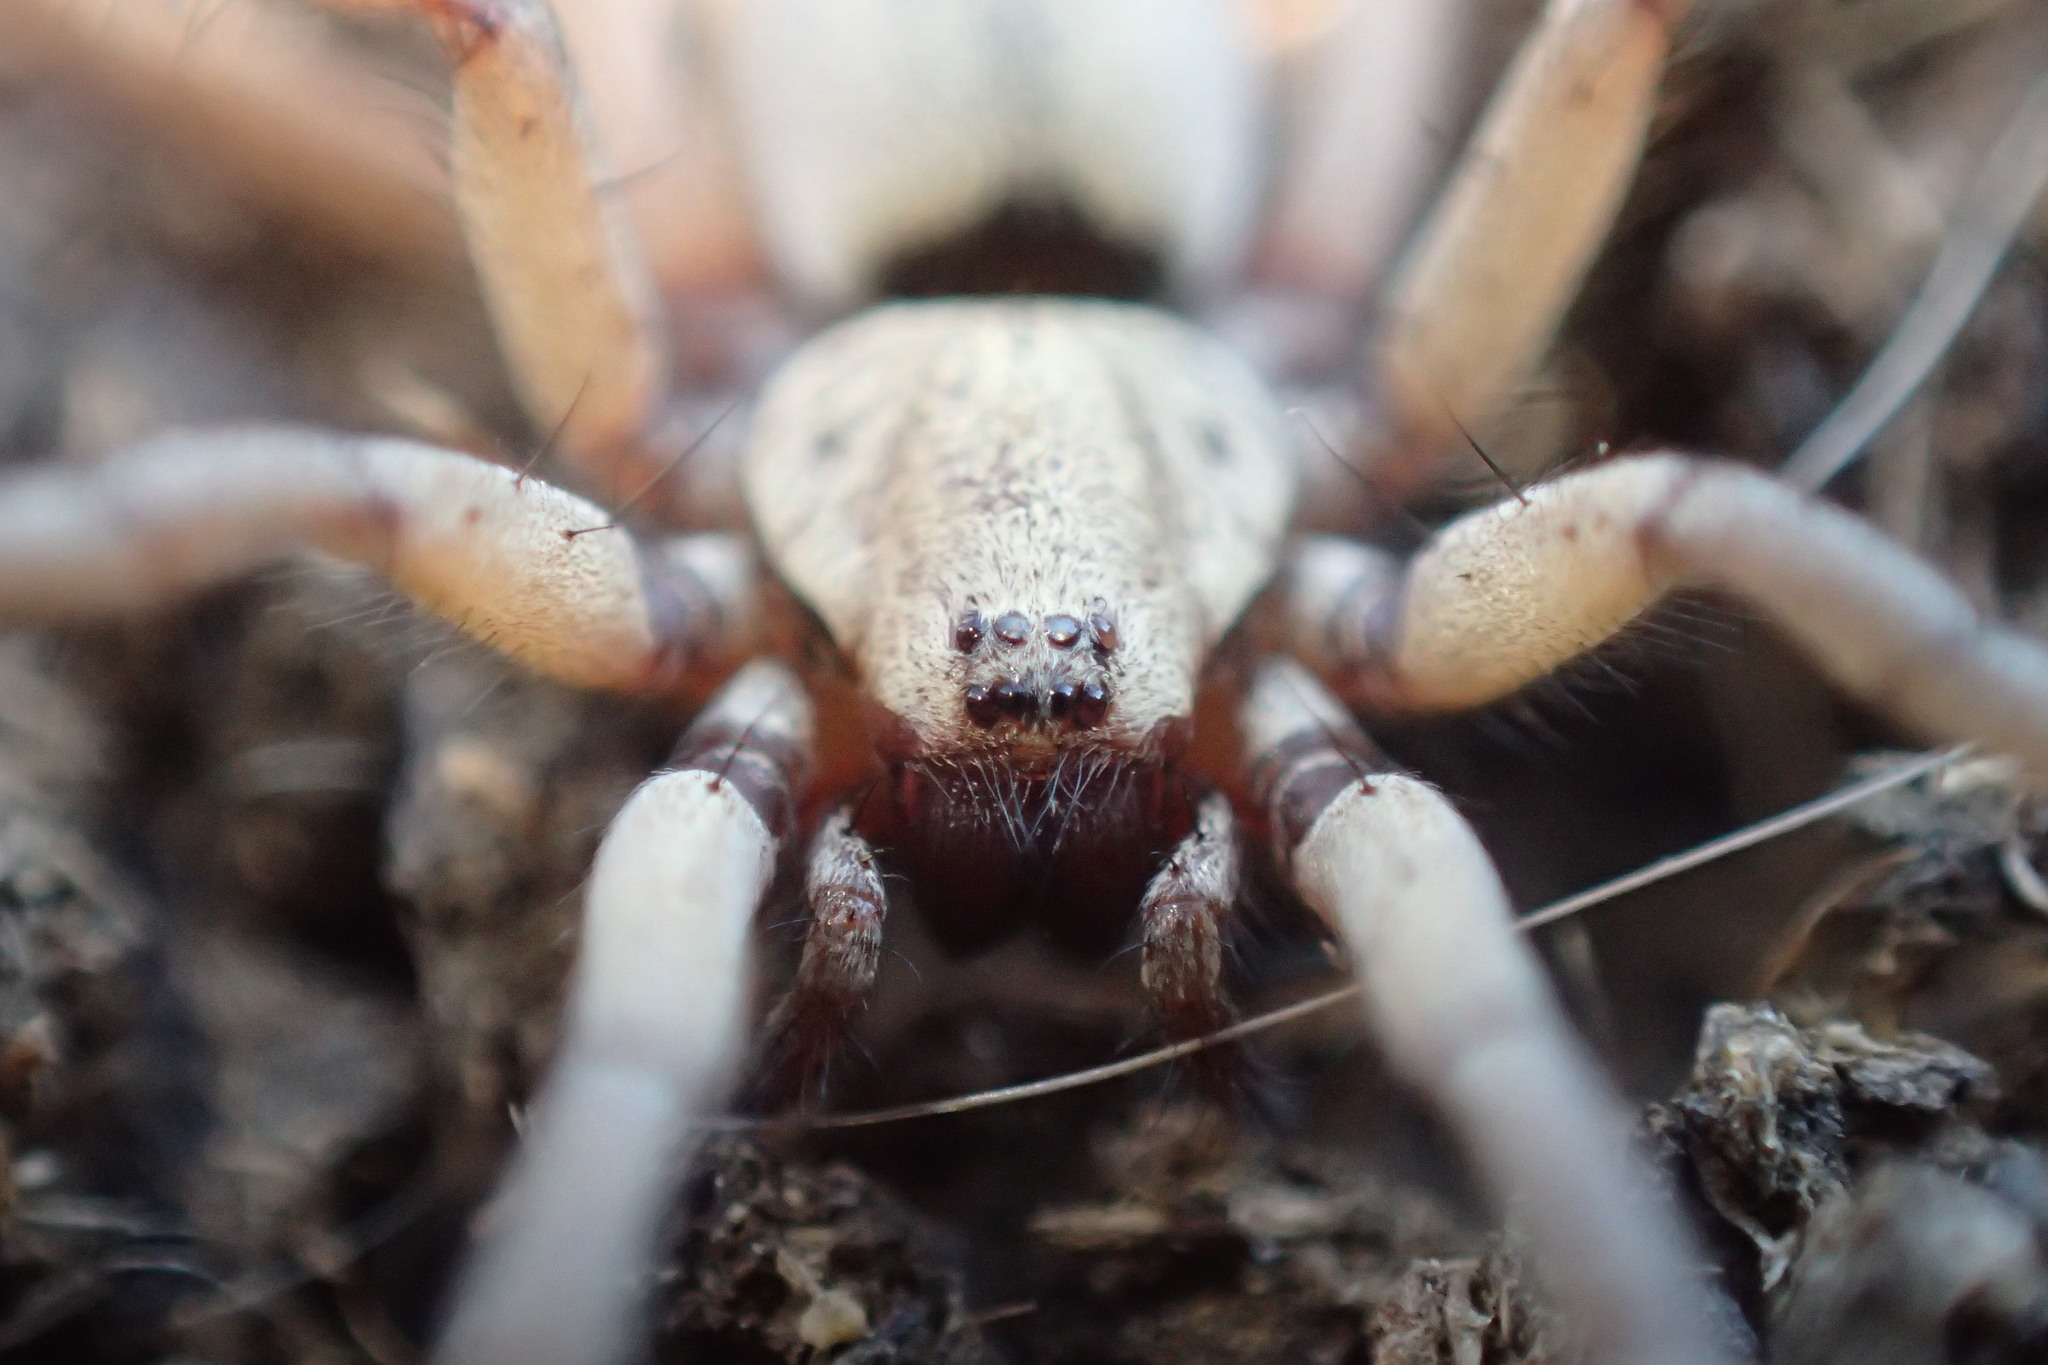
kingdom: Animalia
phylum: Arthropoda
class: Arachnida
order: Araneae
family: Gnaphosidae
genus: Nomisia
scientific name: Nomisia aussereri
